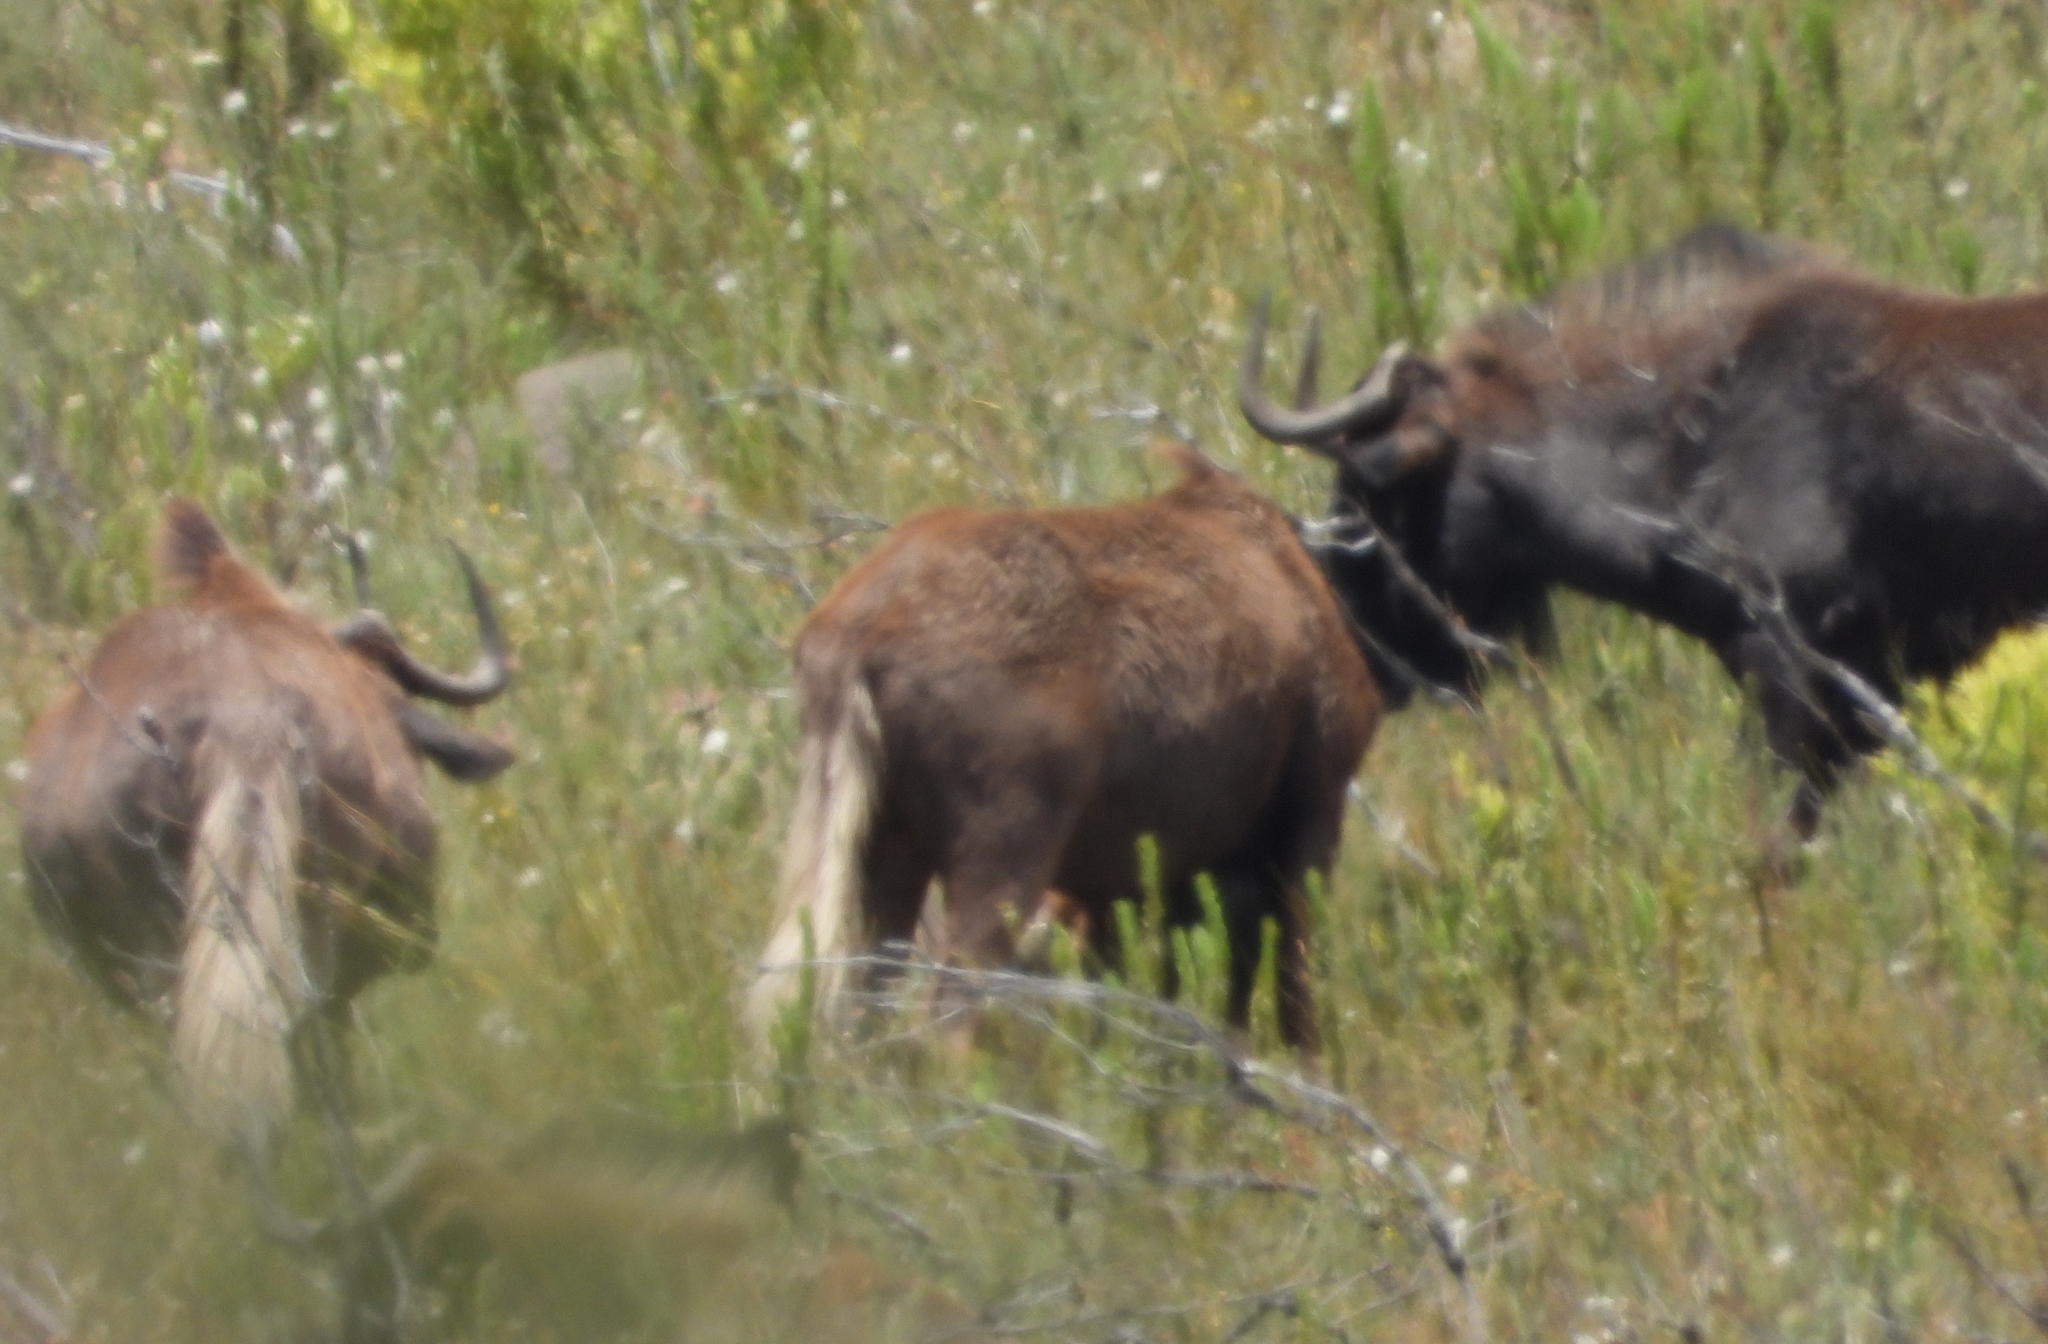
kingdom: Animalia
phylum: Chordata
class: Mammalia
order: Artiodactyla
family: Bovidae
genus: Connochaetes
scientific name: Connochaetes gnou
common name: Black wildebeest
